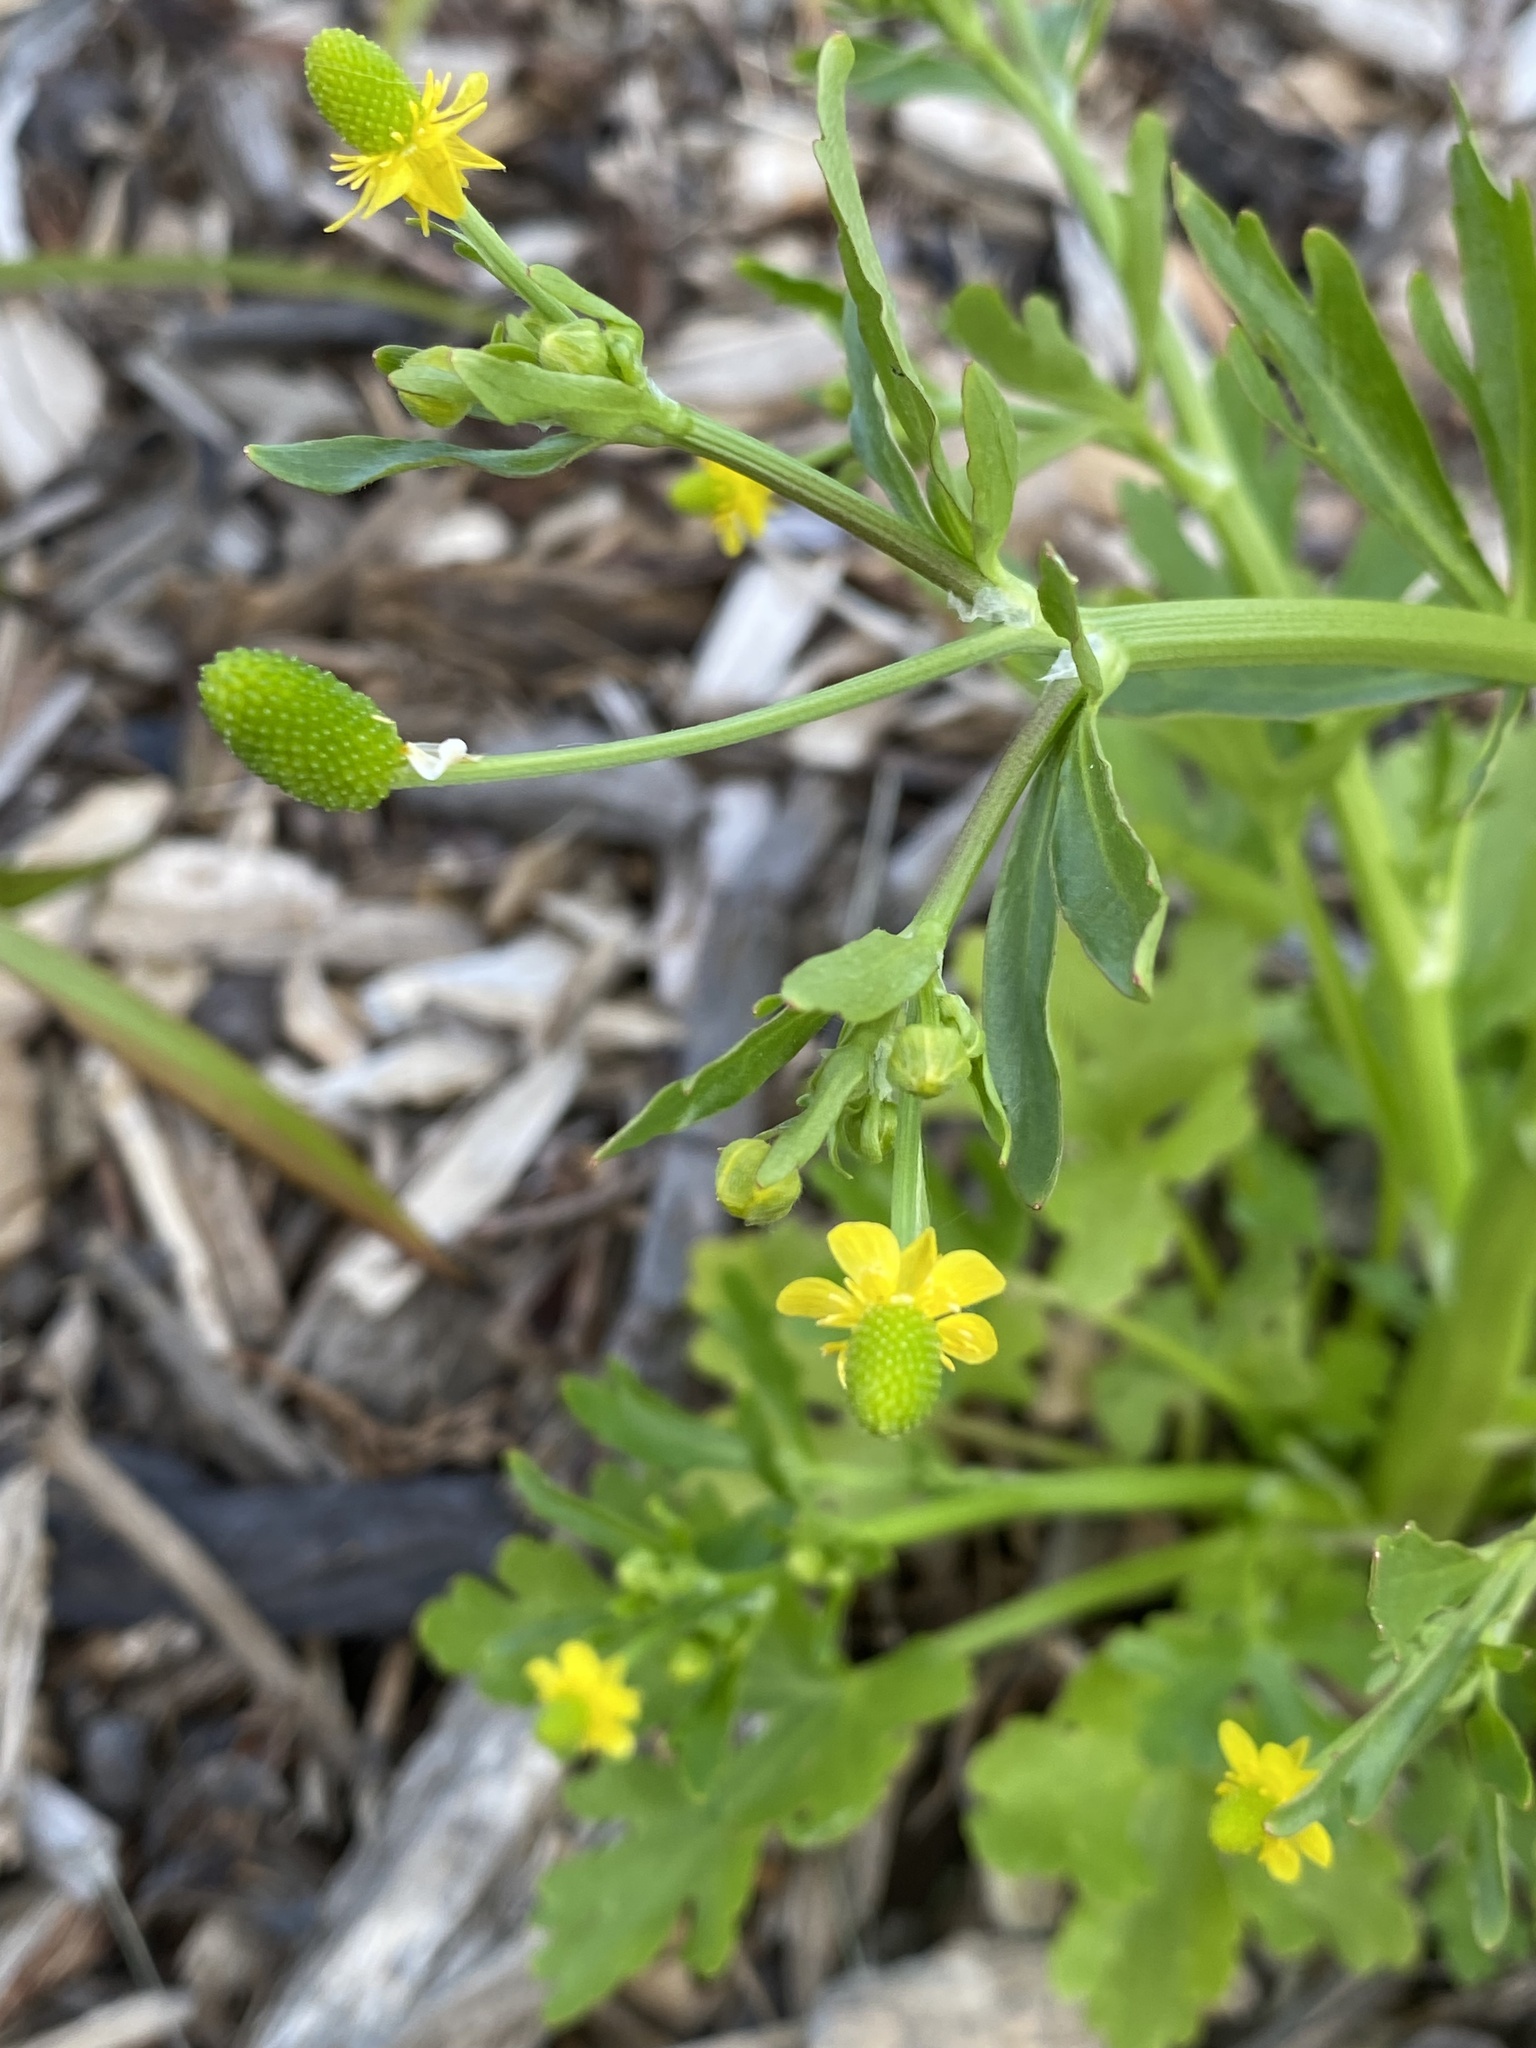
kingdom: Plantae
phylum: Tracheophyta
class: Magnoliopsida
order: Ranunculales
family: Ranunculaceae
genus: Ranunculus
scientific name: Ranunculus sceleratus
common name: Celery-leaved buttercup
